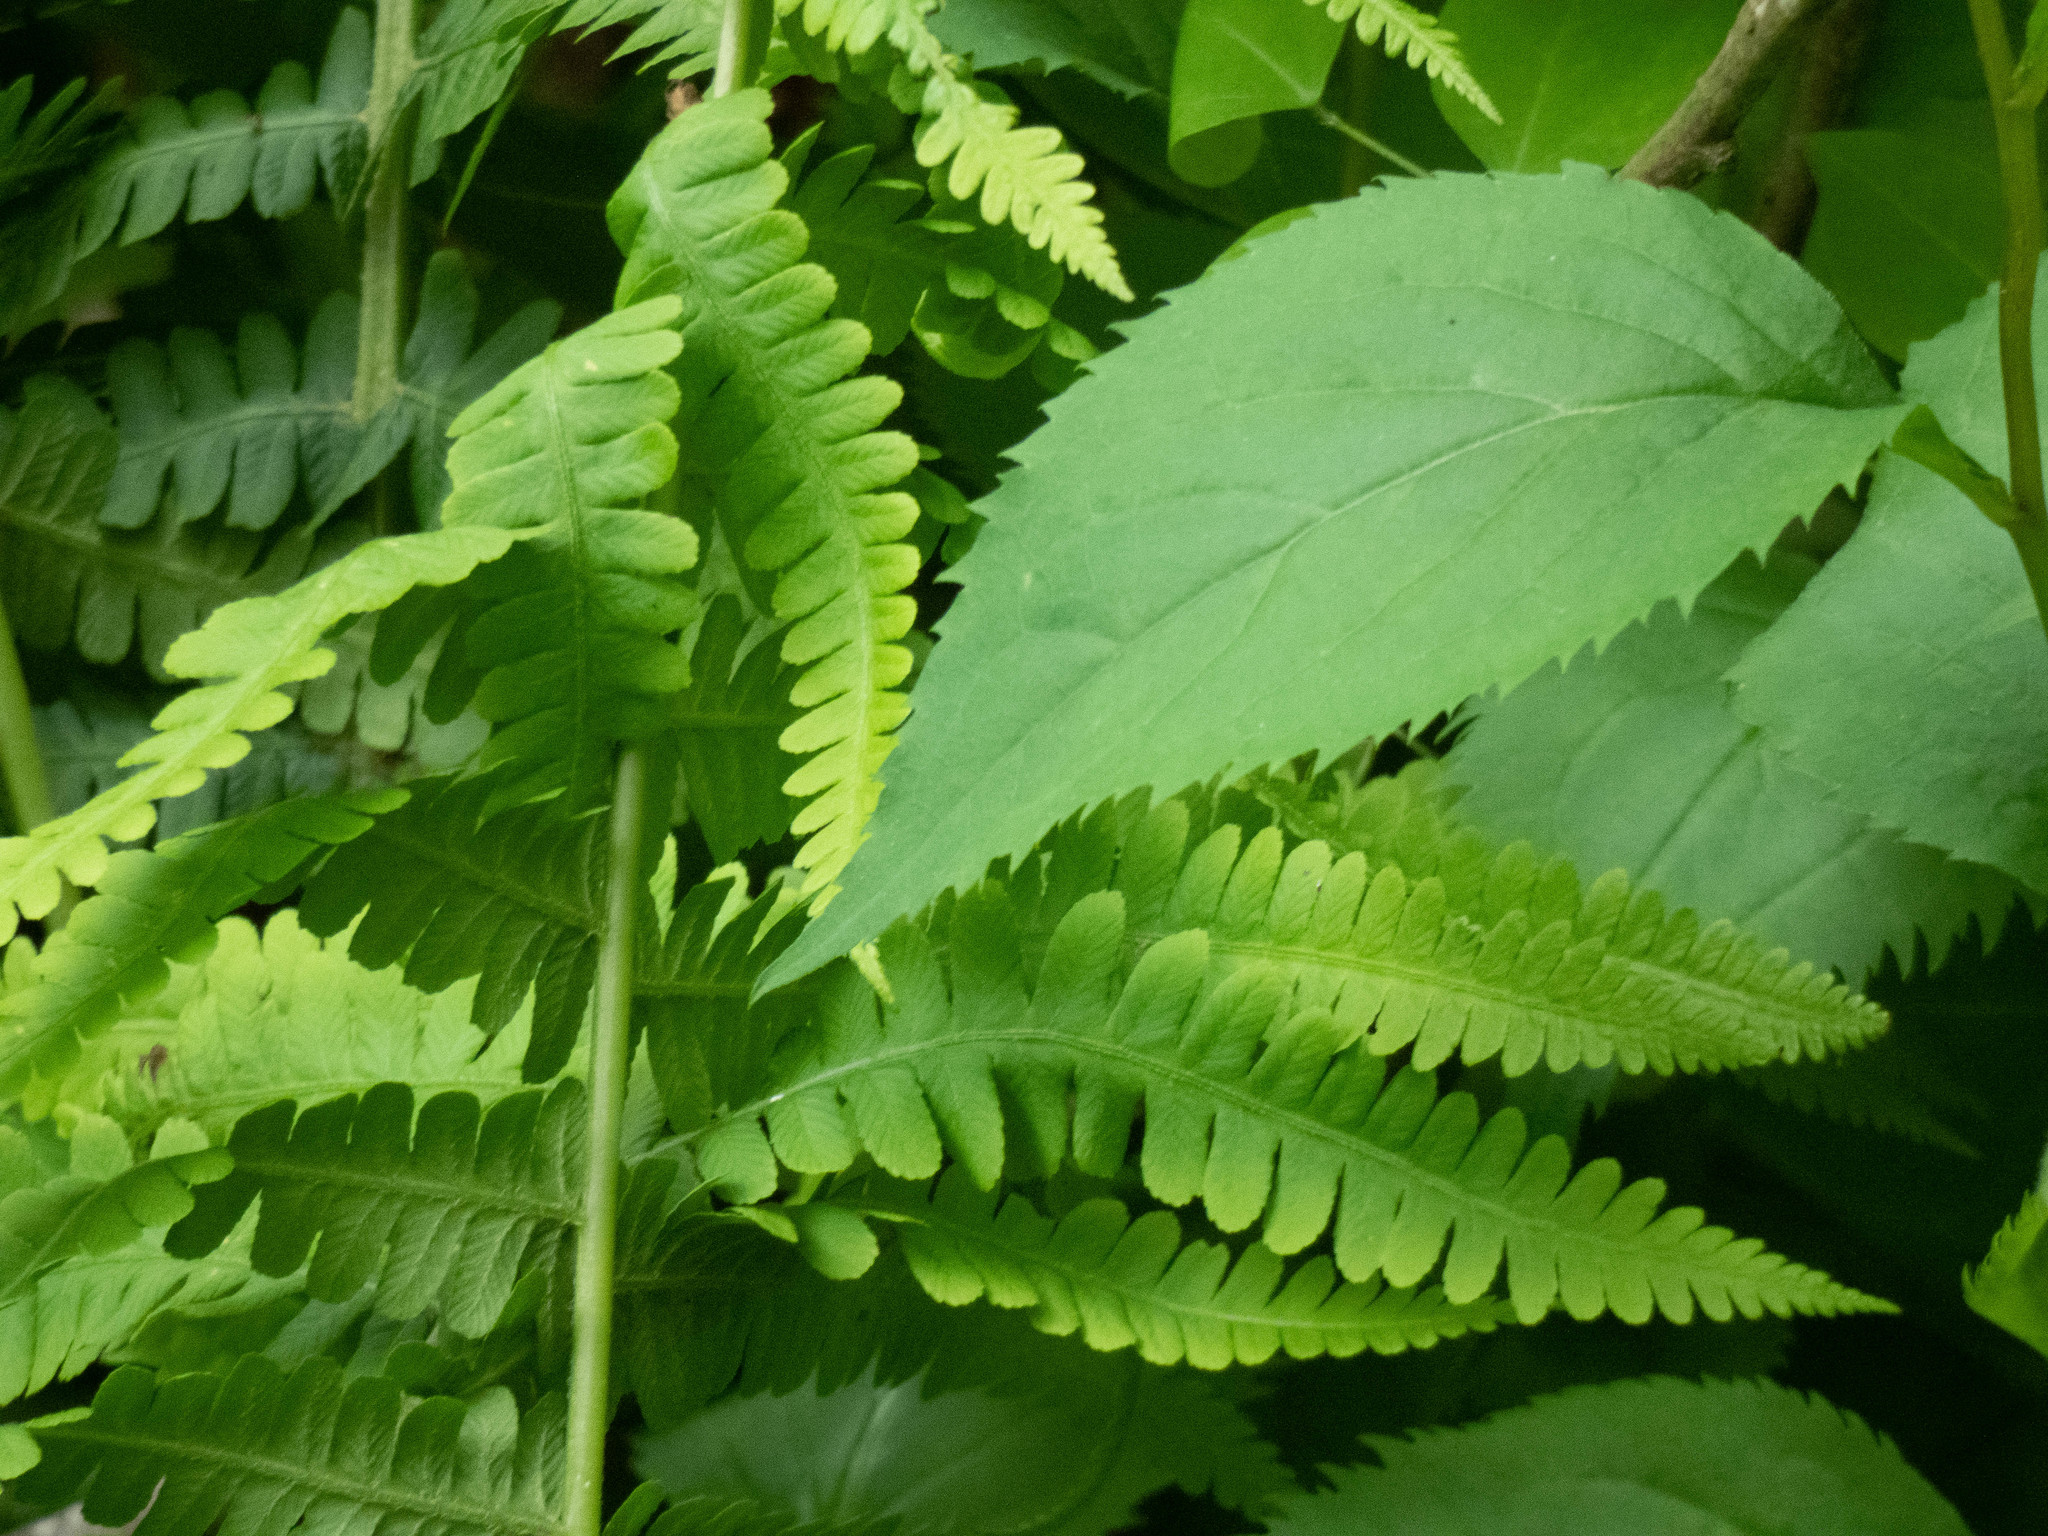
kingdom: Plantae
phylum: Tracheophyta
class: Polypodiopsida
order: Polypodiales
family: Athyriaceae
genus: Deparia
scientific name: Deparia acrostichoides
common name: Silver false spleenwort
